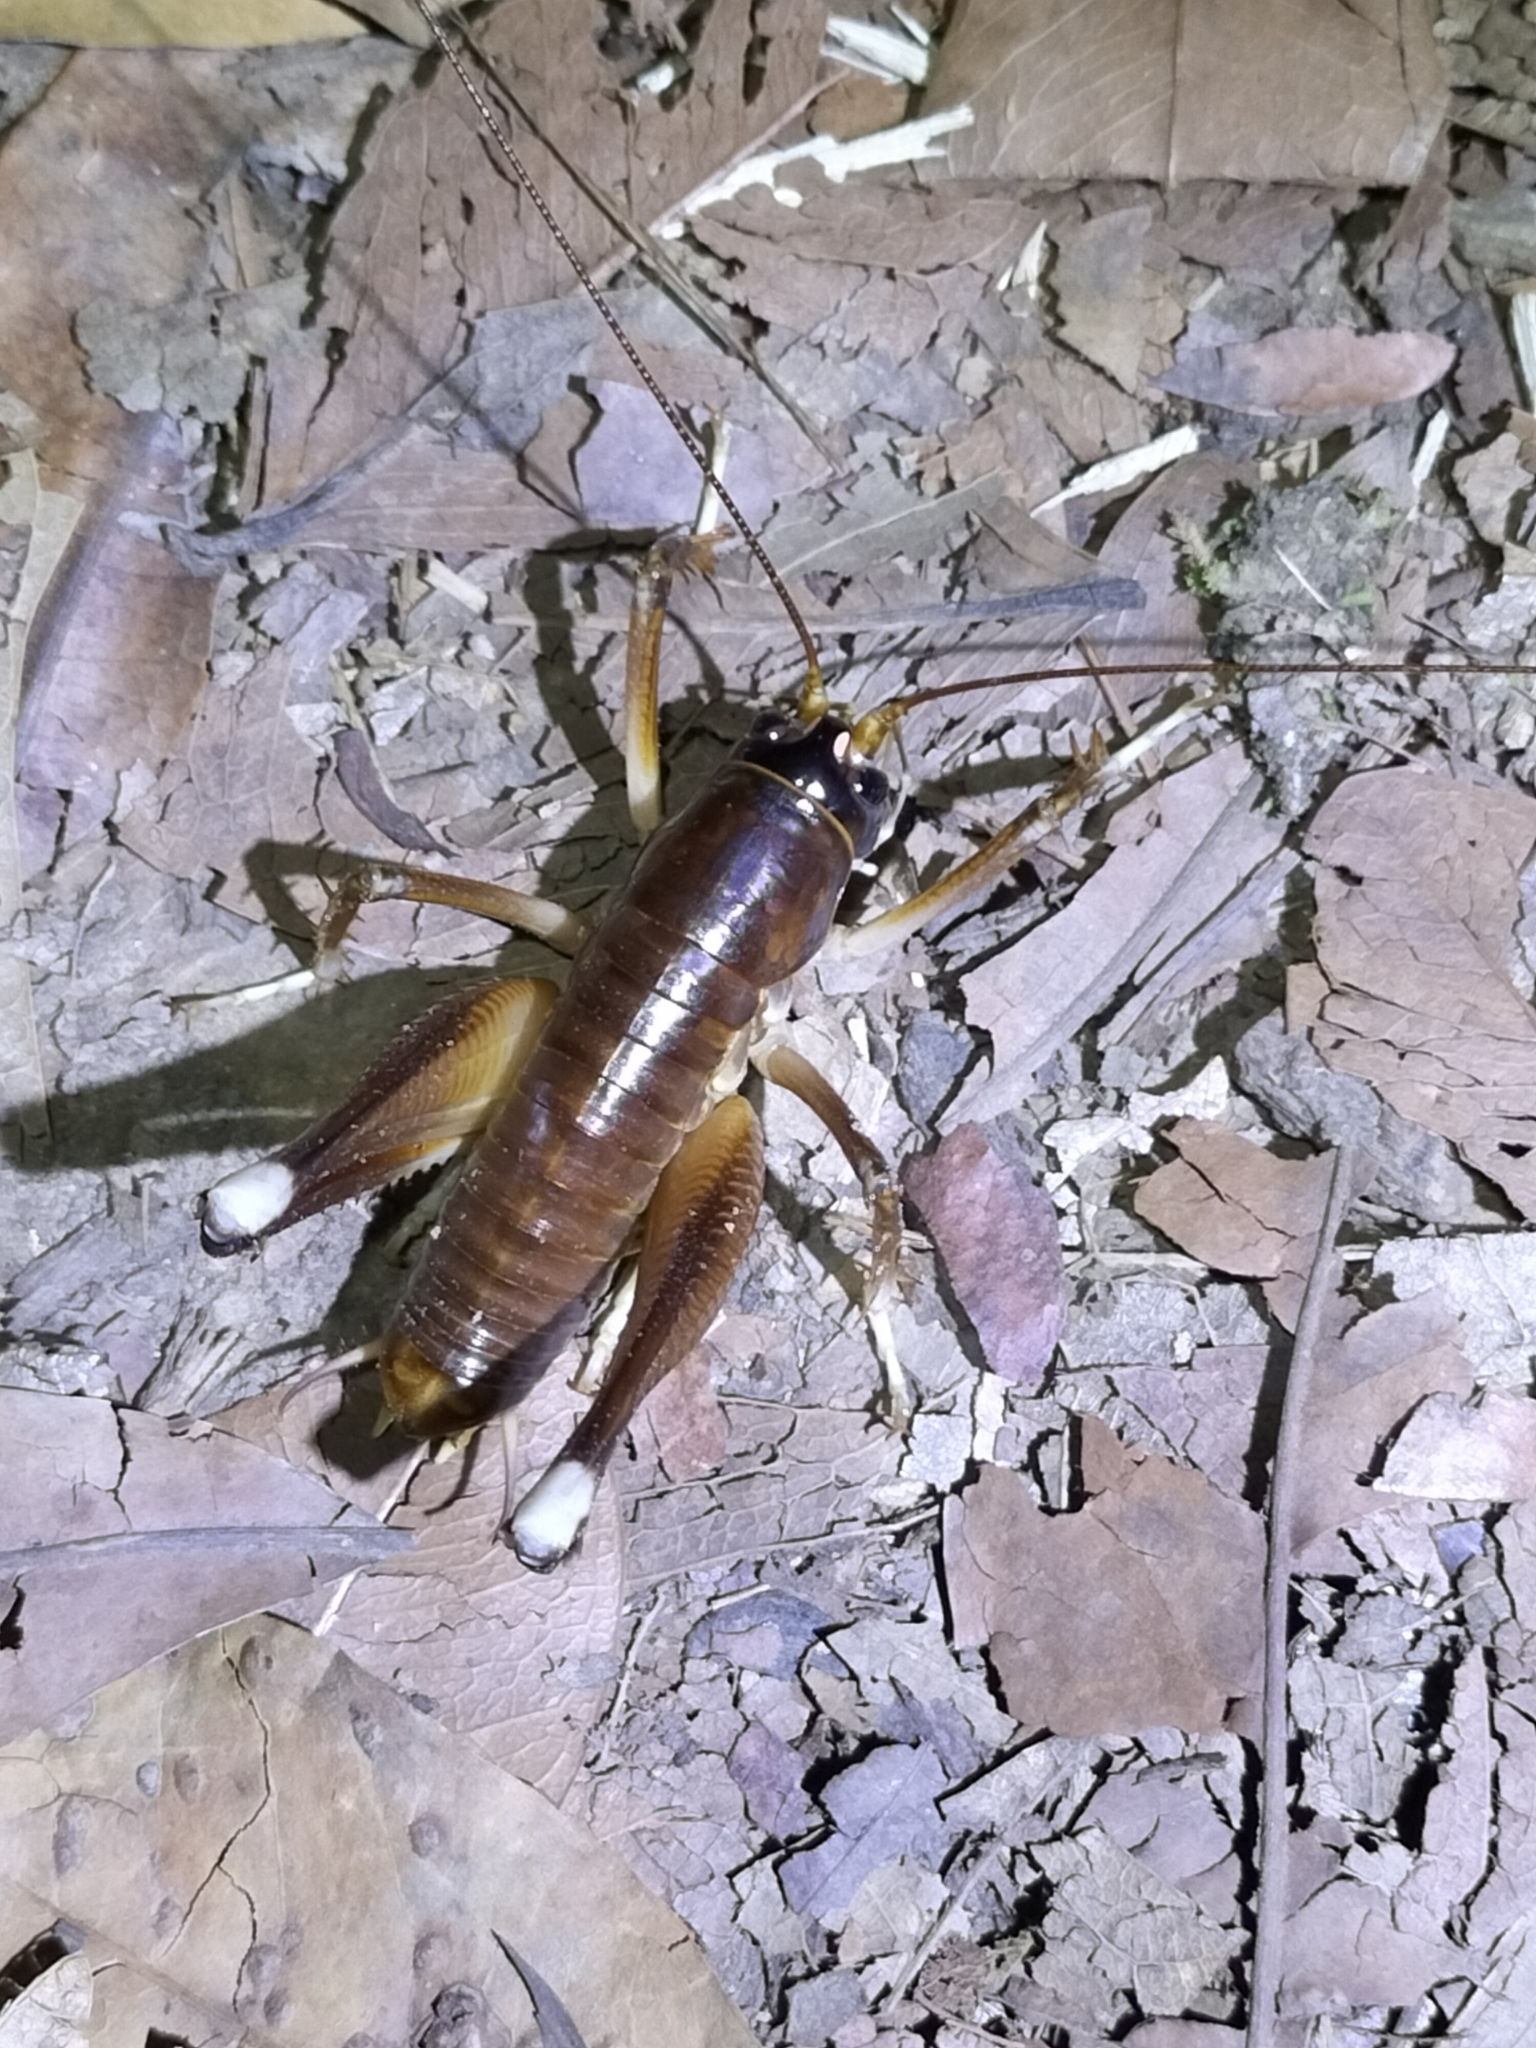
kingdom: Animalia
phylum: Arthropoda
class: Insecta
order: Orthoptera
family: Anostostomatidae
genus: Penalva
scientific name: Penalva flavocalceata
